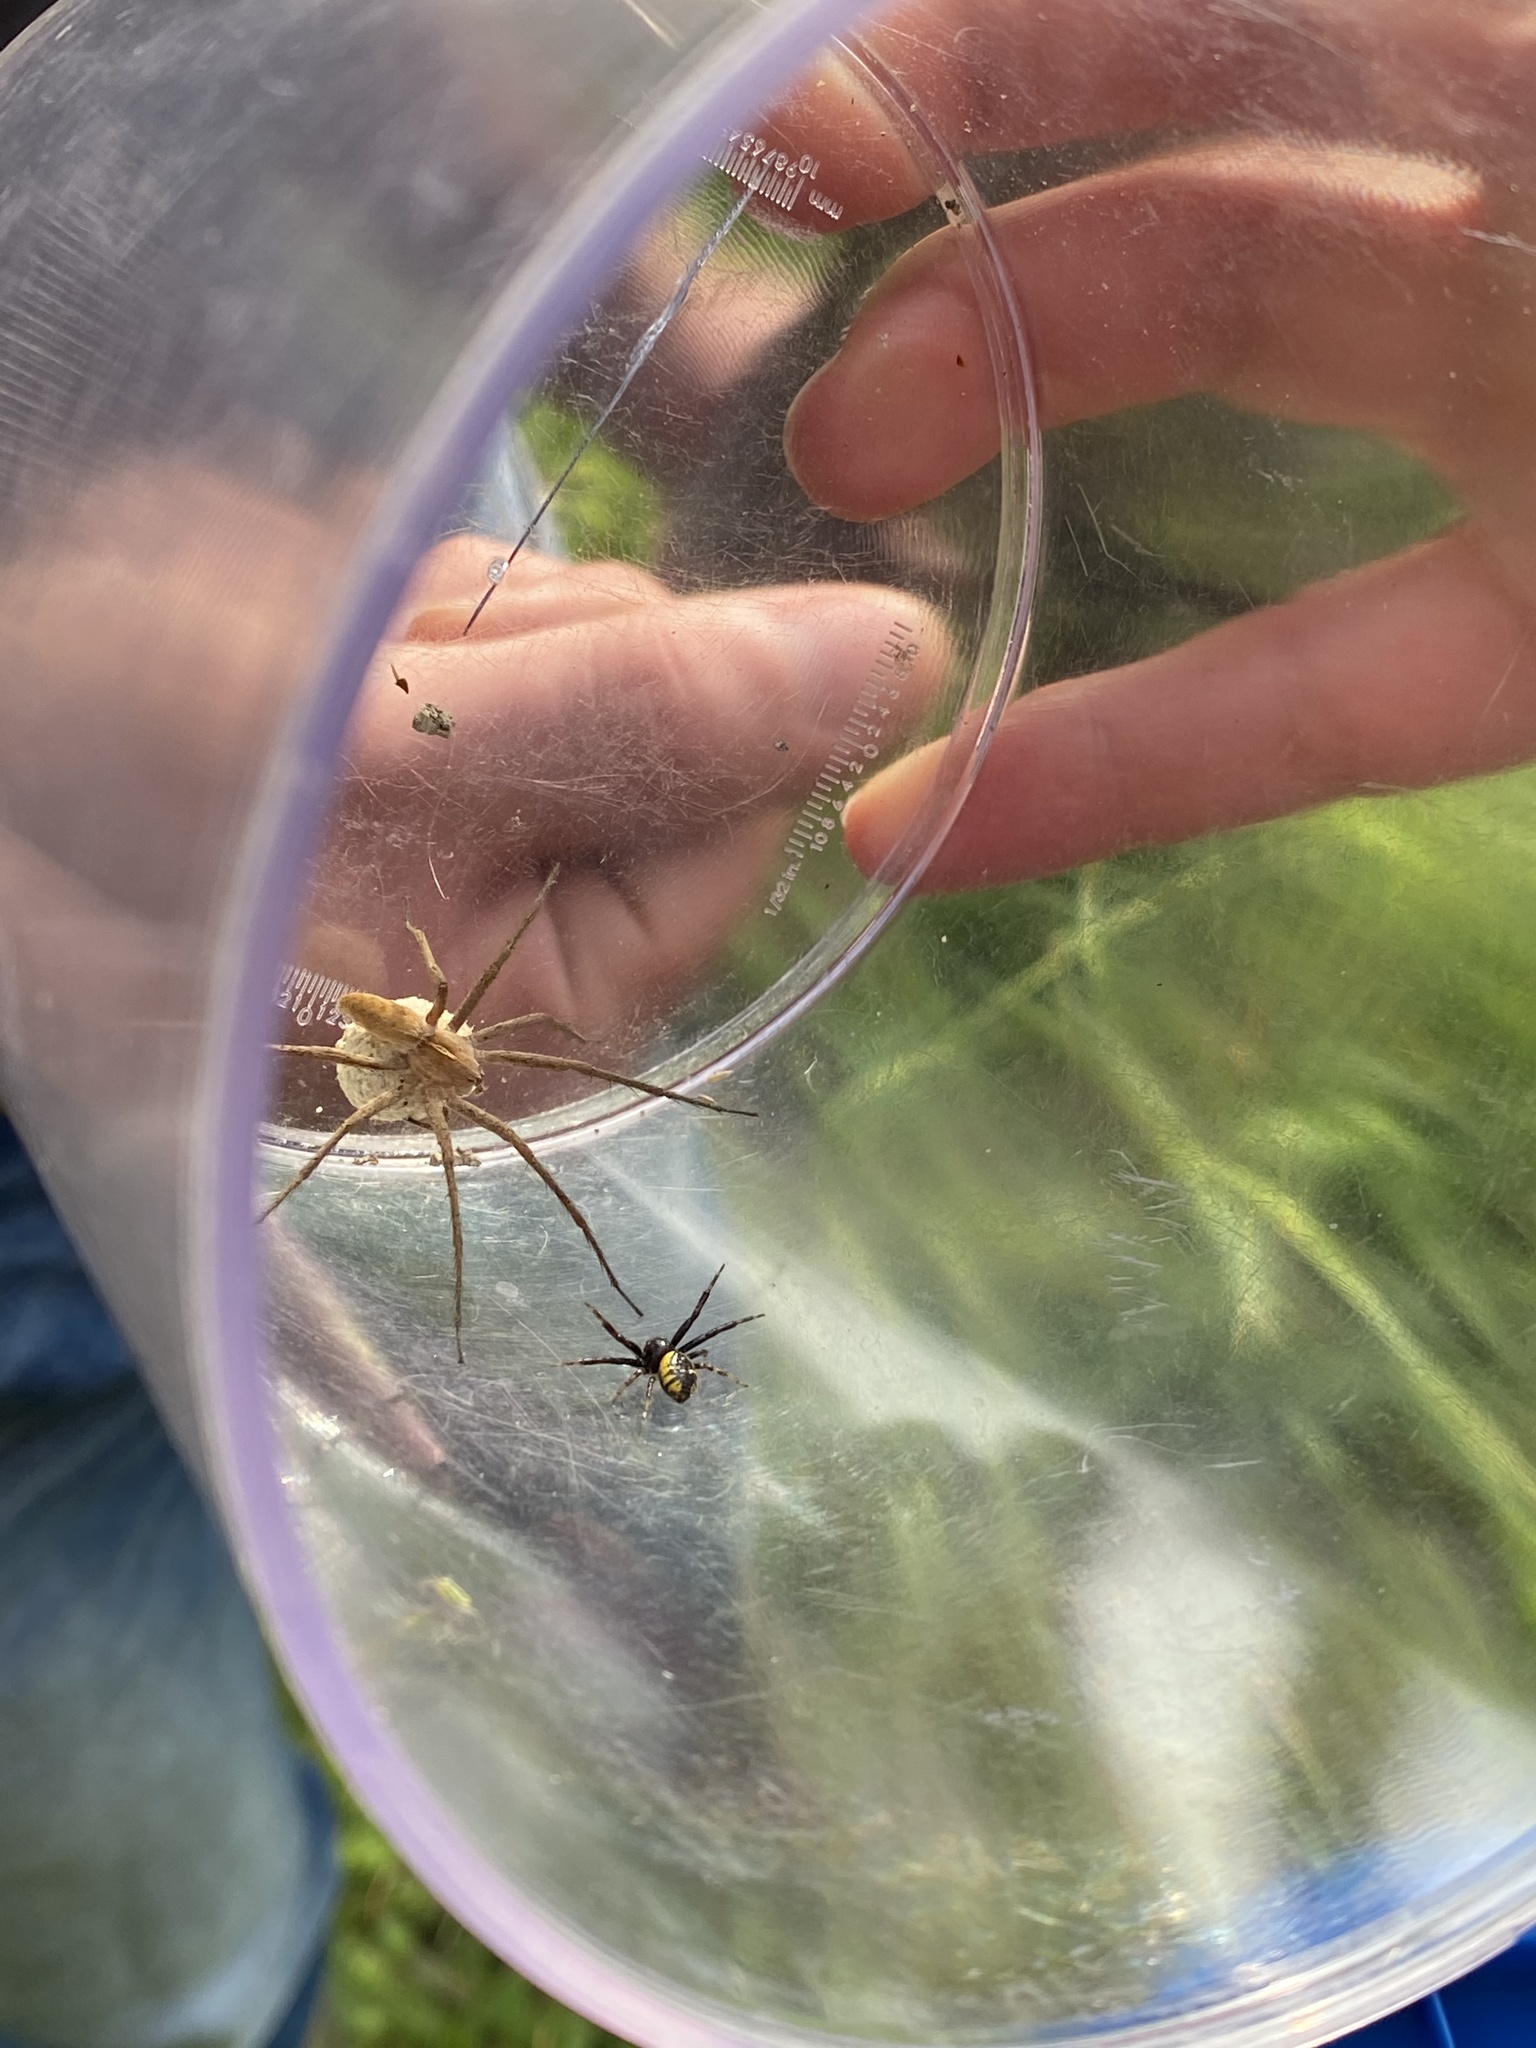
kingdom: Animalia
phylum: Arthropoda
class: Arachnida
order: Araneae
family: Pisauridae
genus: Pisaura
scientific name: Pisaura mirabilis
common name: Tent spider
